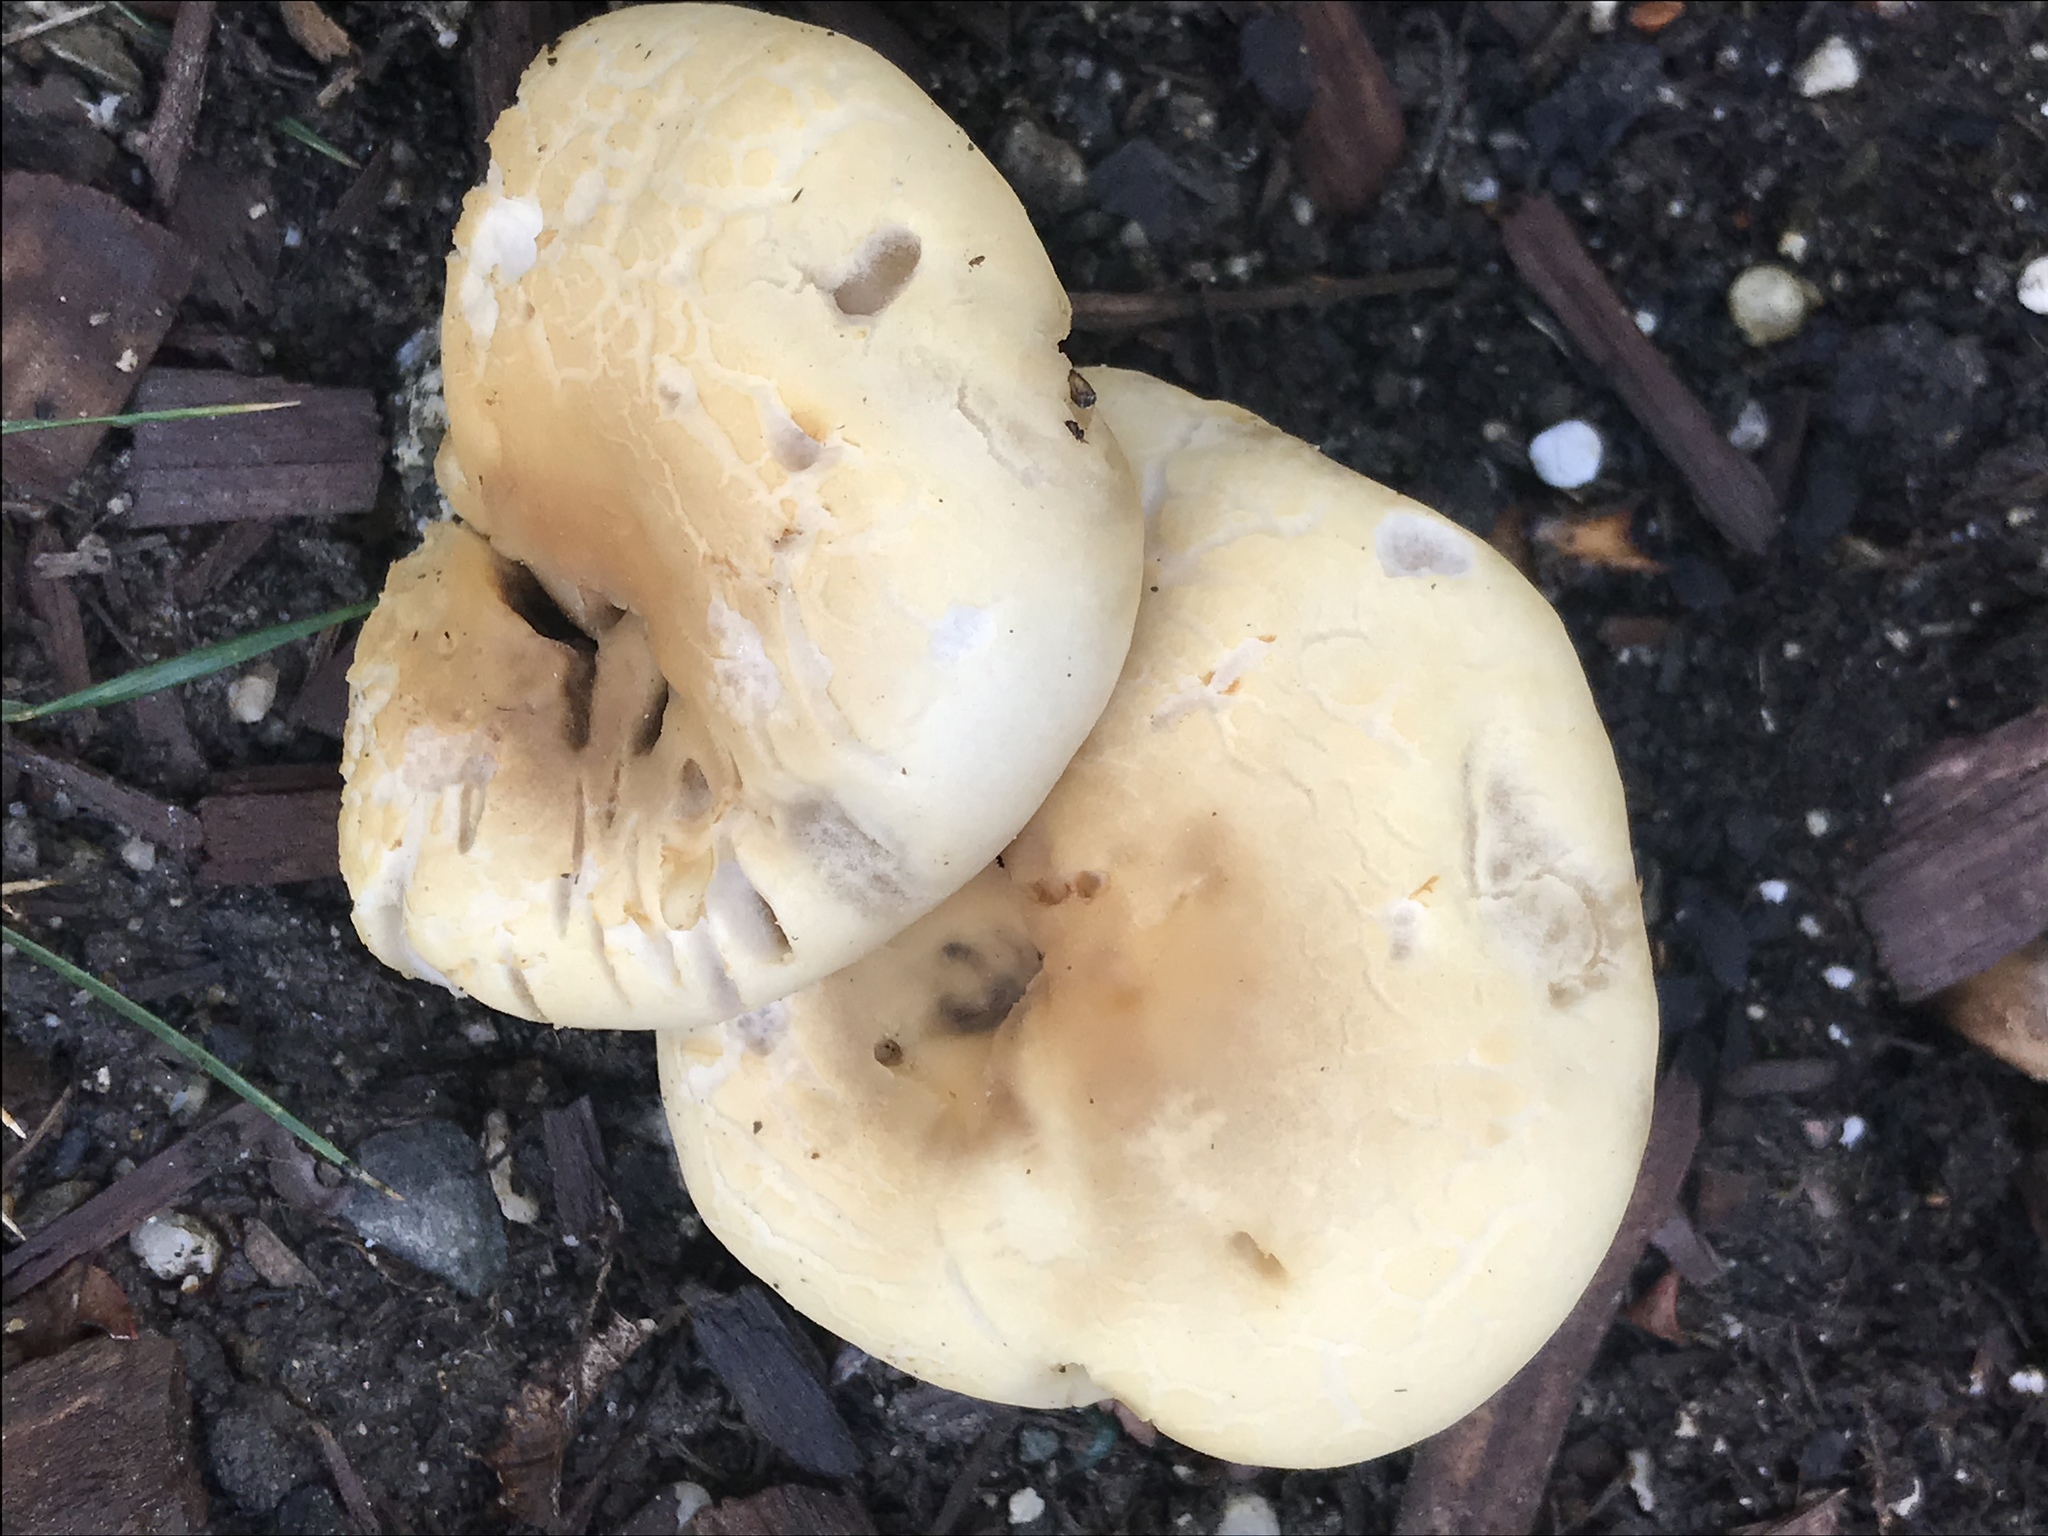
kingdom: Fungi
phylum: Basidiomycota
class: Agaricomycetes
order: Agaricales
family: Strophariaceae
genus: Agrocybe
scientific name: Agrocybe praecox
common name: Spring fieldcap
